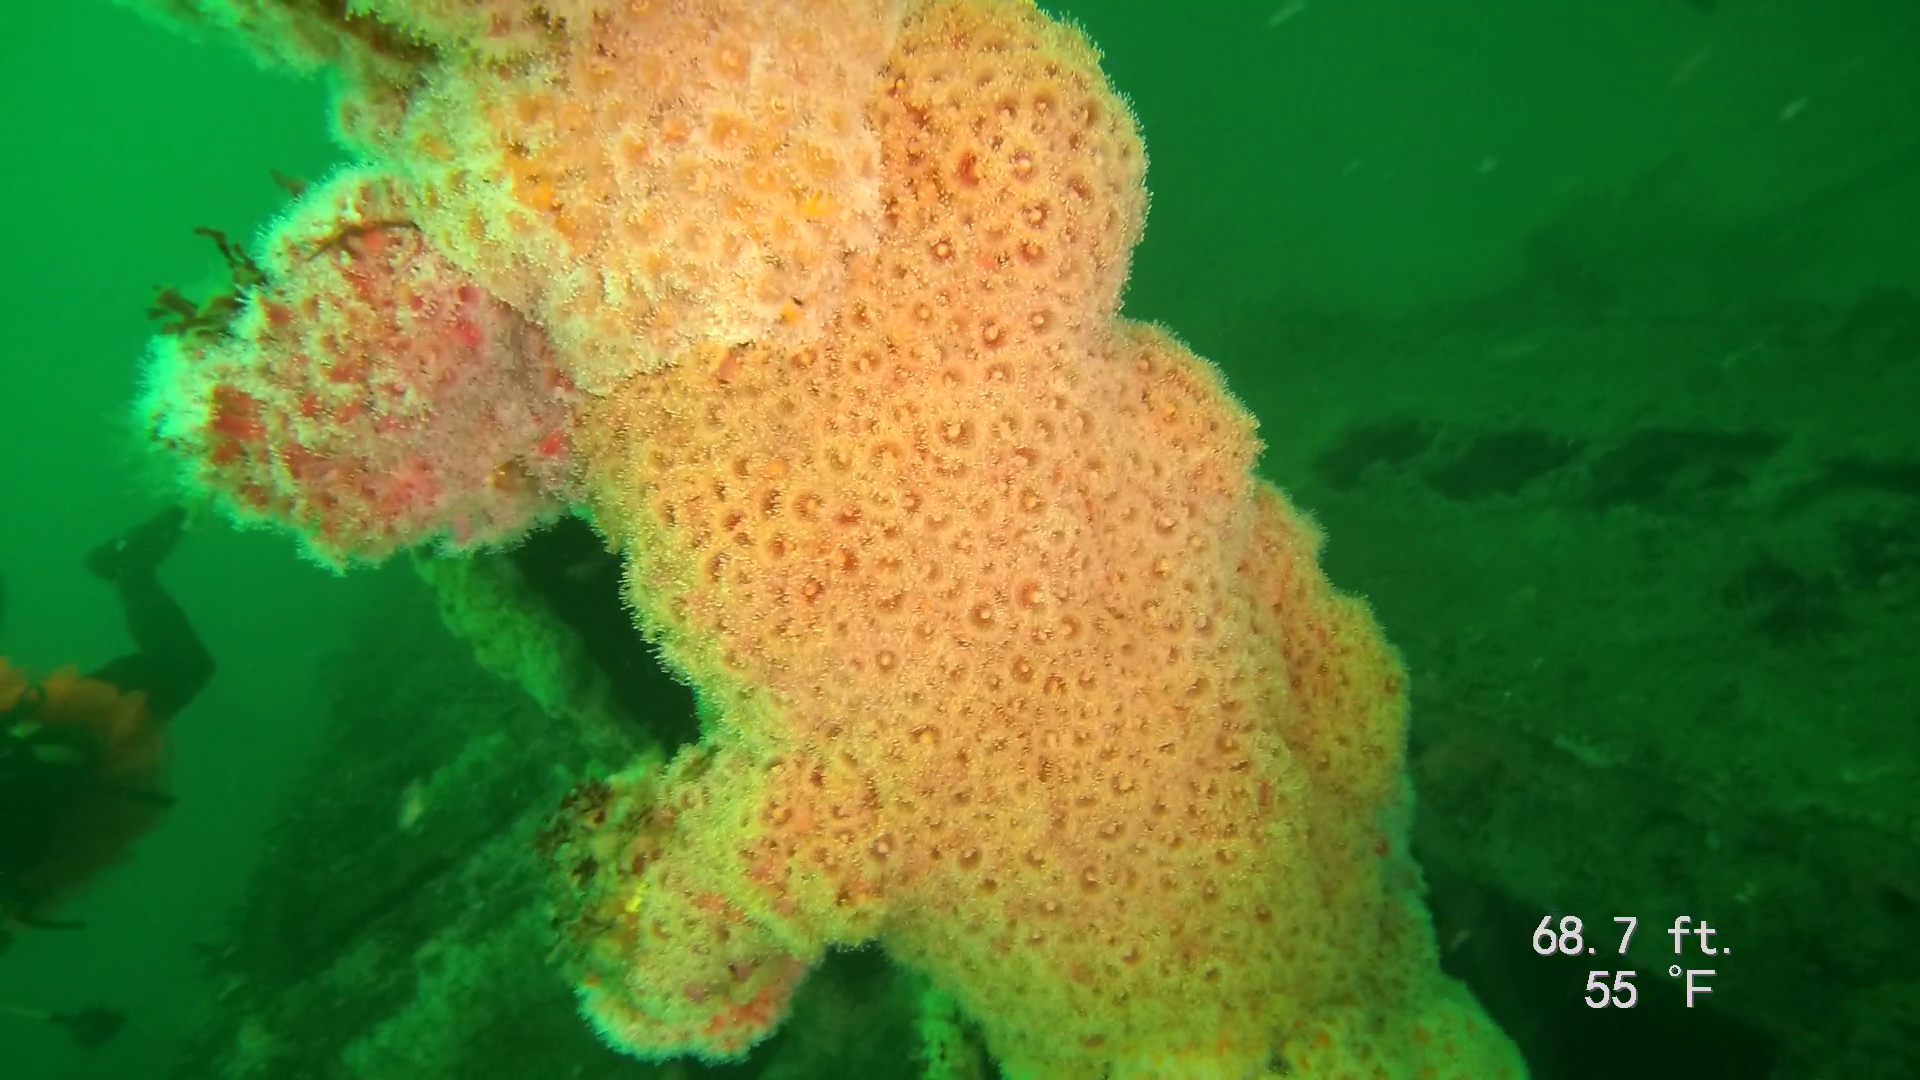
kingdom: Animalia
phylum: Cnidaria
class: Anthozoa
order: Corallimorpharia
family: Corallimorphidae
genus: Corynactis
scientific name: Corynactis californica
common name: Strawberry corallimorpharian
